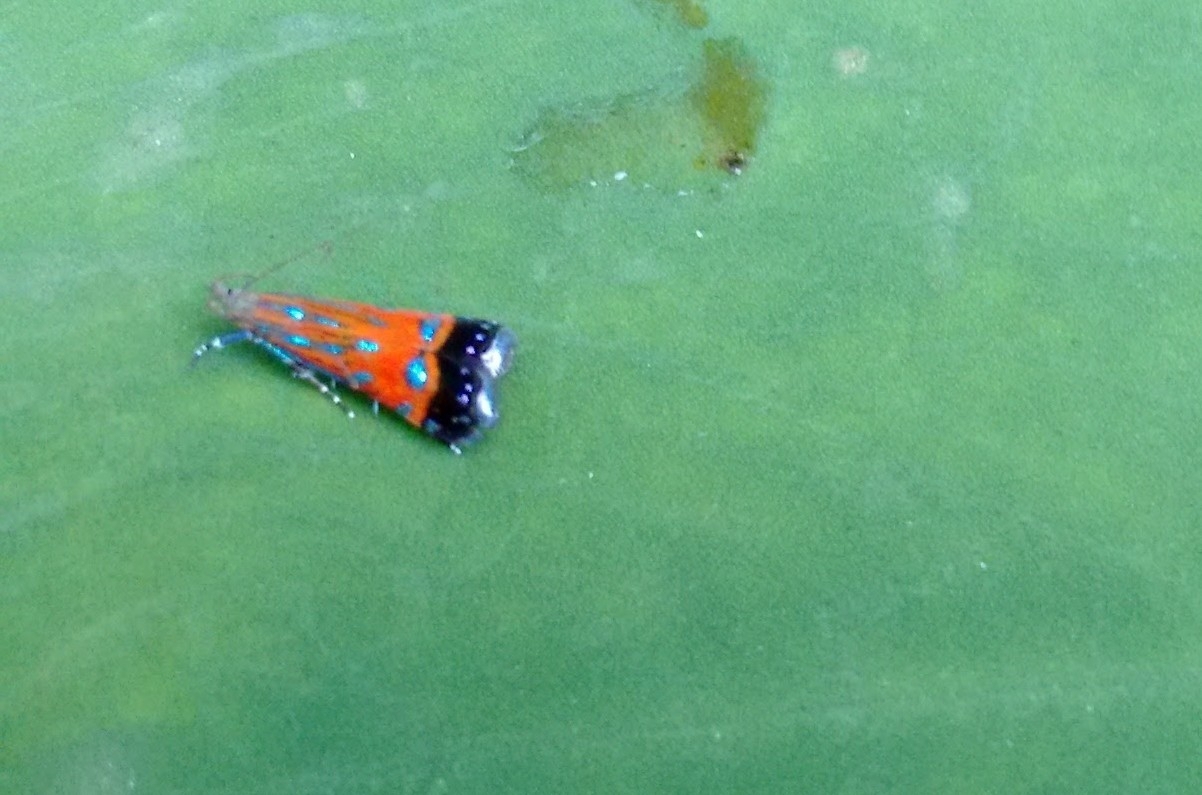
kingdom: Animalia
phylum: Arthropoda
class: Insecta
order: Lepidoptera
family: Gelechiidae
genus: Tricyanaula
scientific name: Tricyanaula aurantiaca
